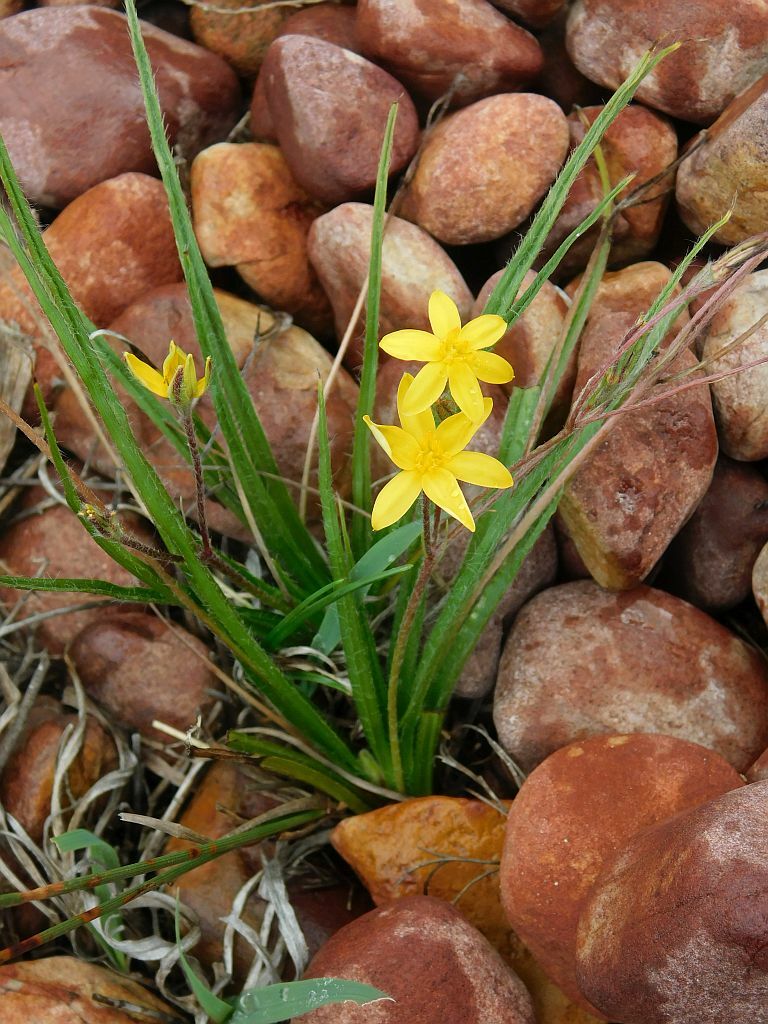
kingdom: Plantae
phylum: Tracheophyta
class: Liliopsida
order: Asparagales
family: Hypoxidaceae
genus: Hypoxis
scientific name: Hypoxis floccosa
